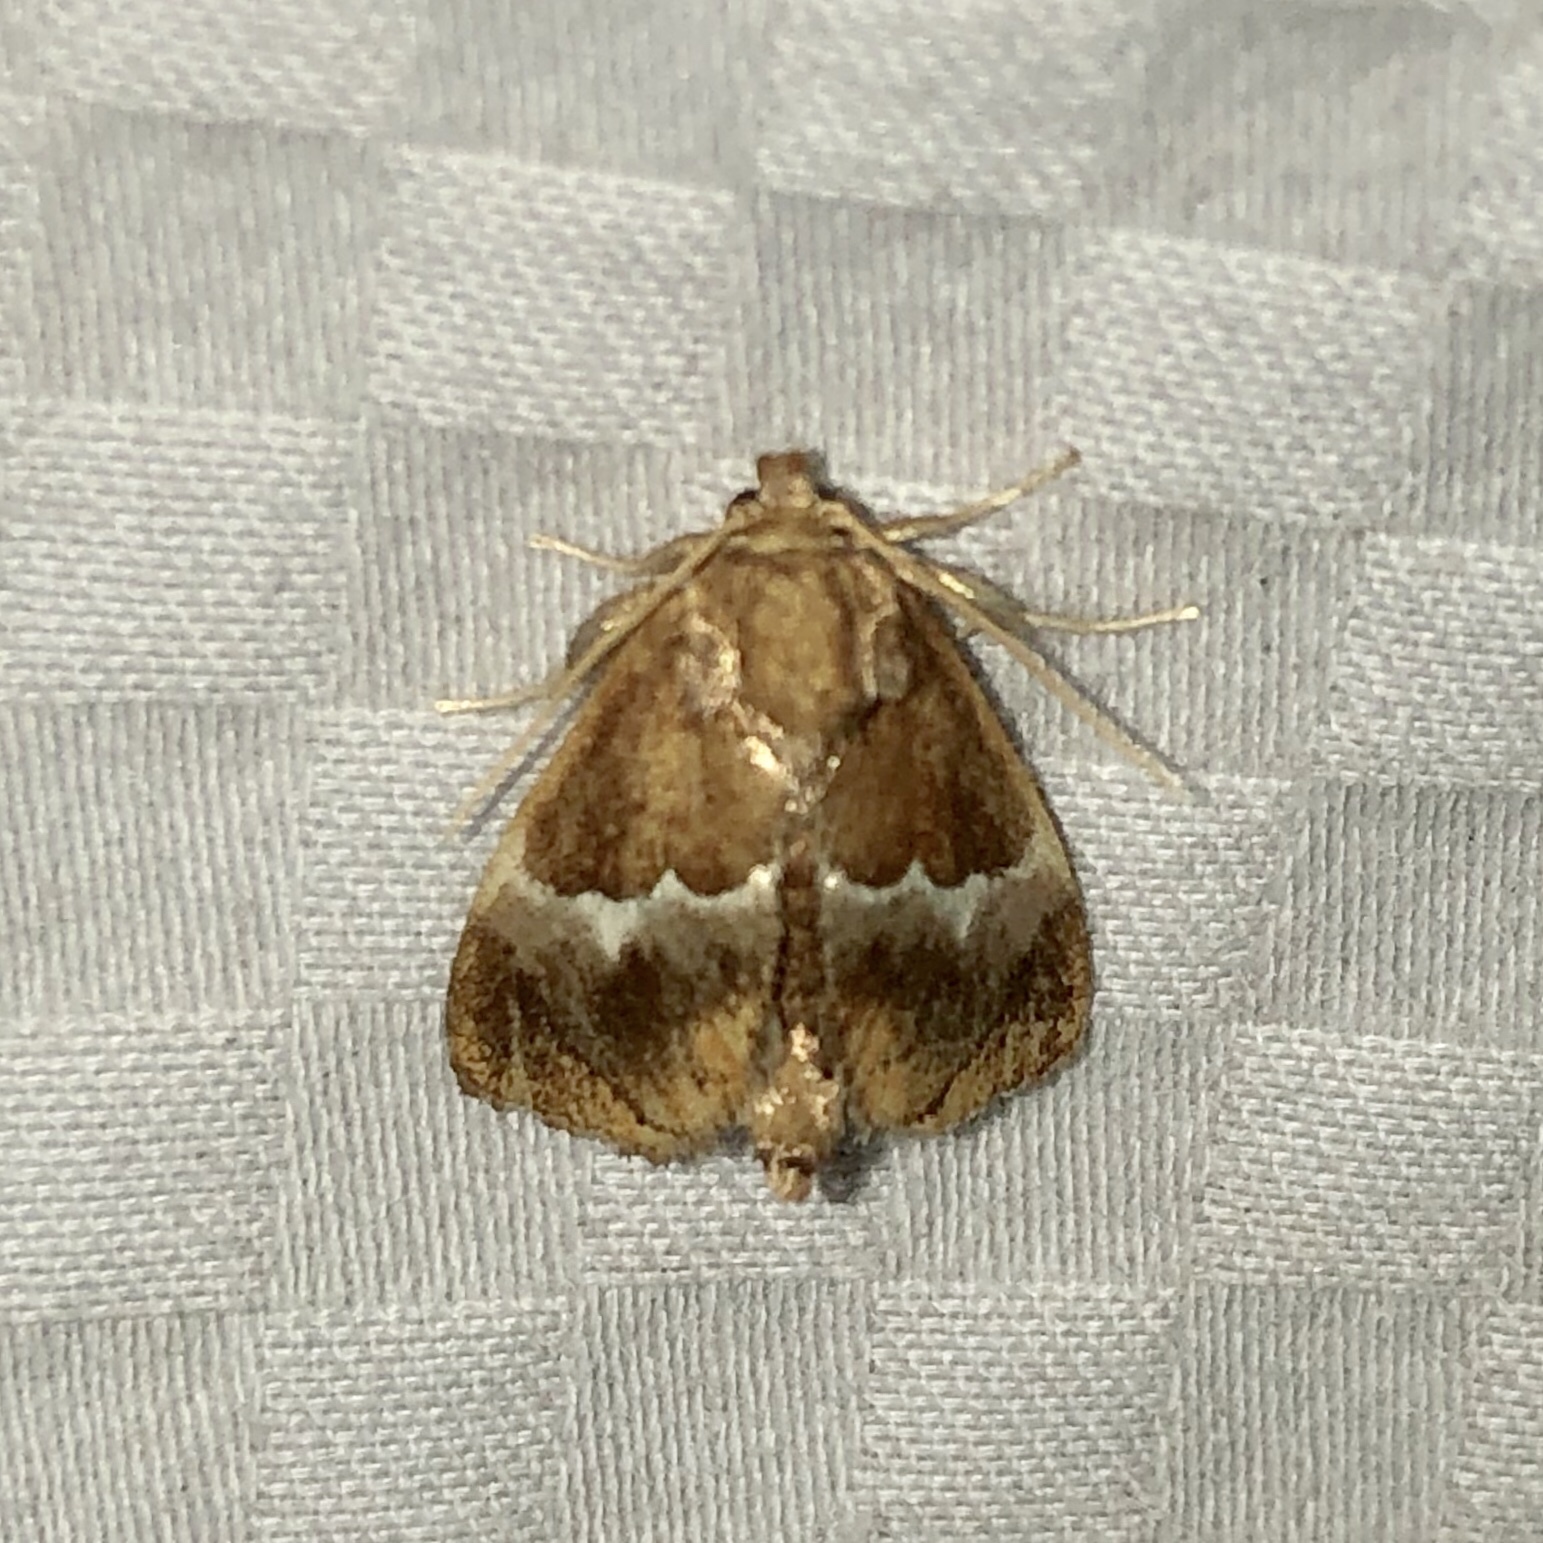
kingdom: Animalia
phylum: Arthropoda
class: Insecta
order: Lepidoptera
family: Limacodidae
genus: Lithacodes
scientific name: Lithacodes fasciola
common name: Yellow-shouldered slug moth
